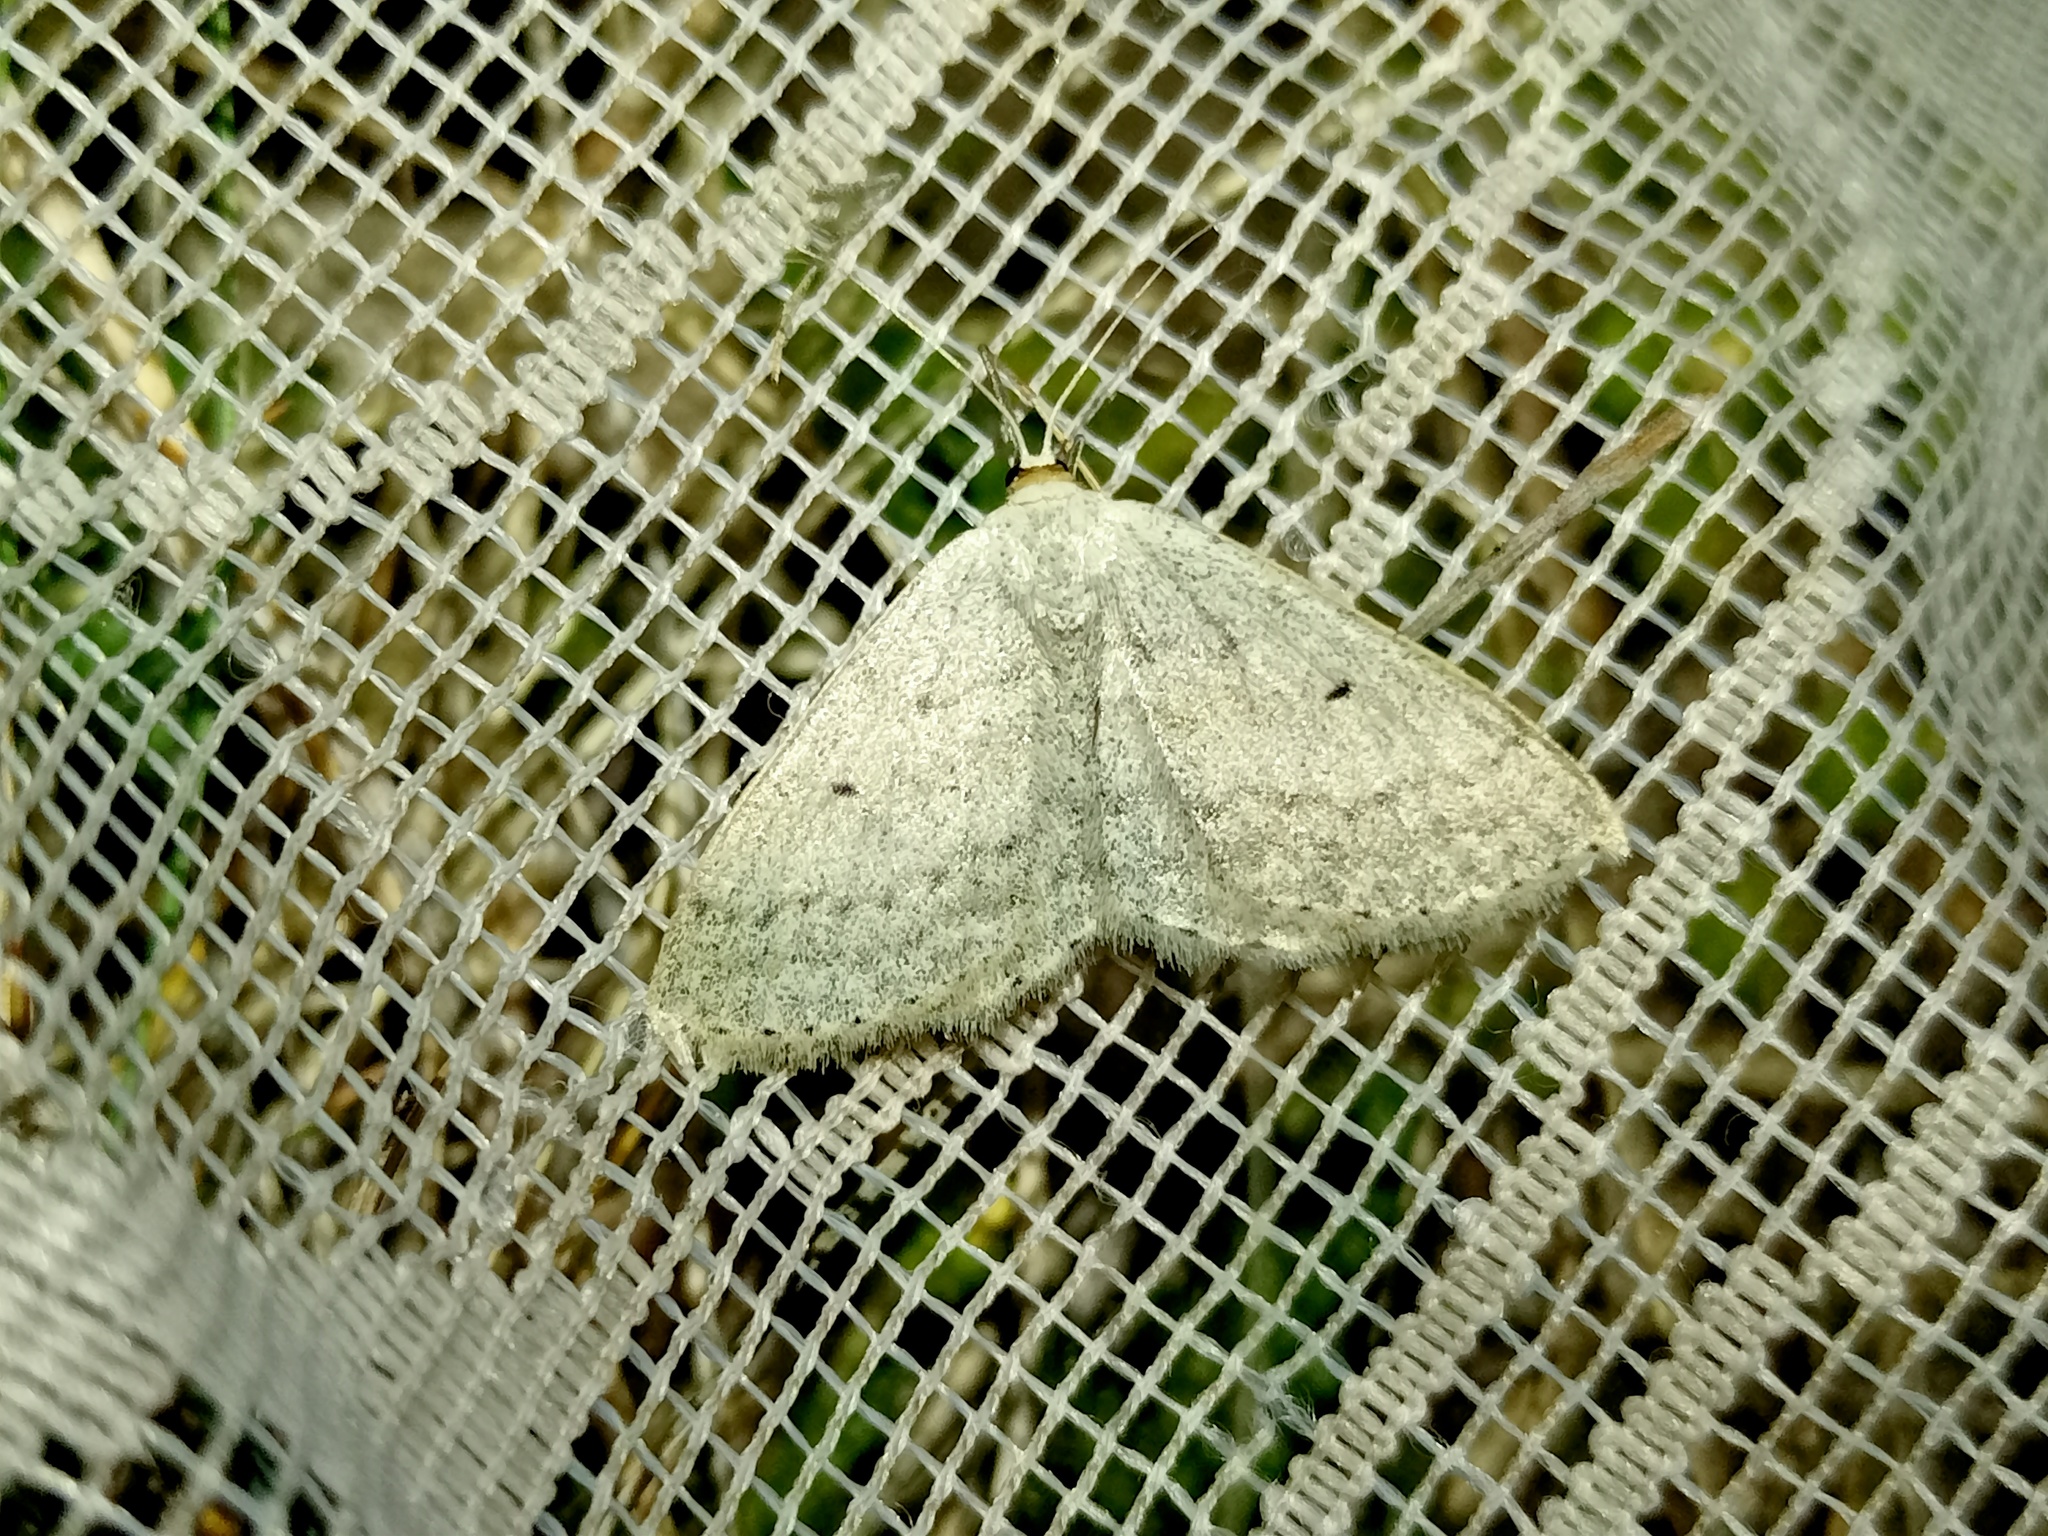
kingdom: Animalia
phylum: Arthropoda
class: Insecta
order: Lepidoptera
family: Geometridae
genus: Scopula
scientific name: Scopula incanata
